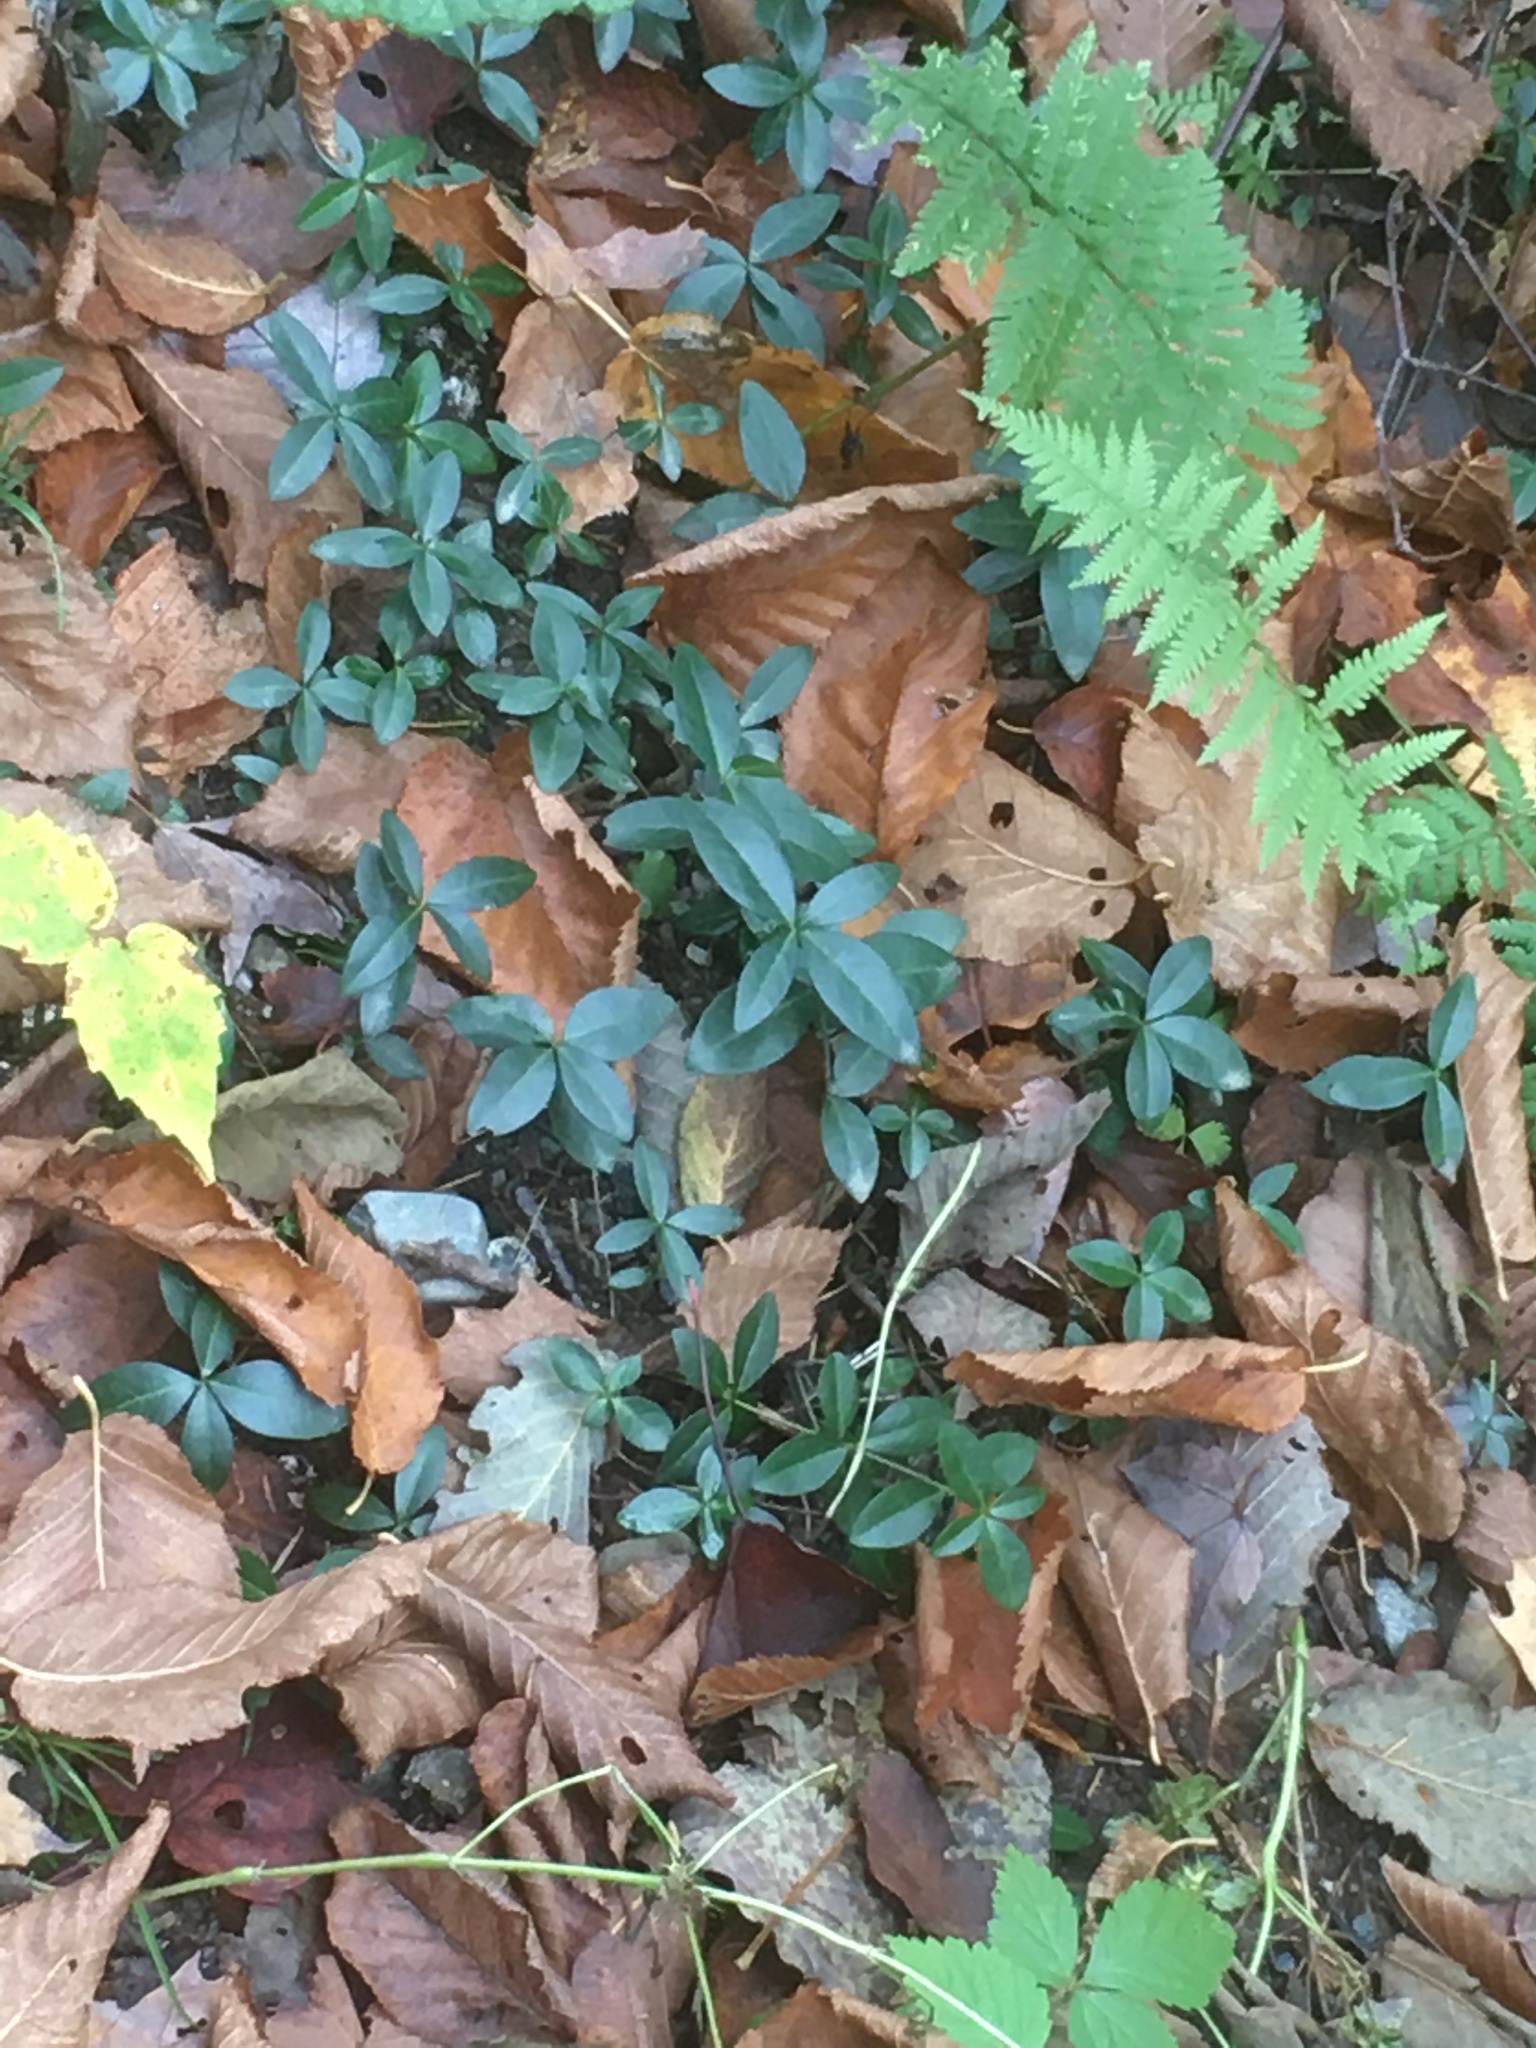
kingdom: Plantae
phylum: Tracheophyta
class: Magnoliopsida
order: Gentianales
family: Apocynaceae
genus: Vinca
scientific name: Vinca minor
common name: Lesser periwinkle
